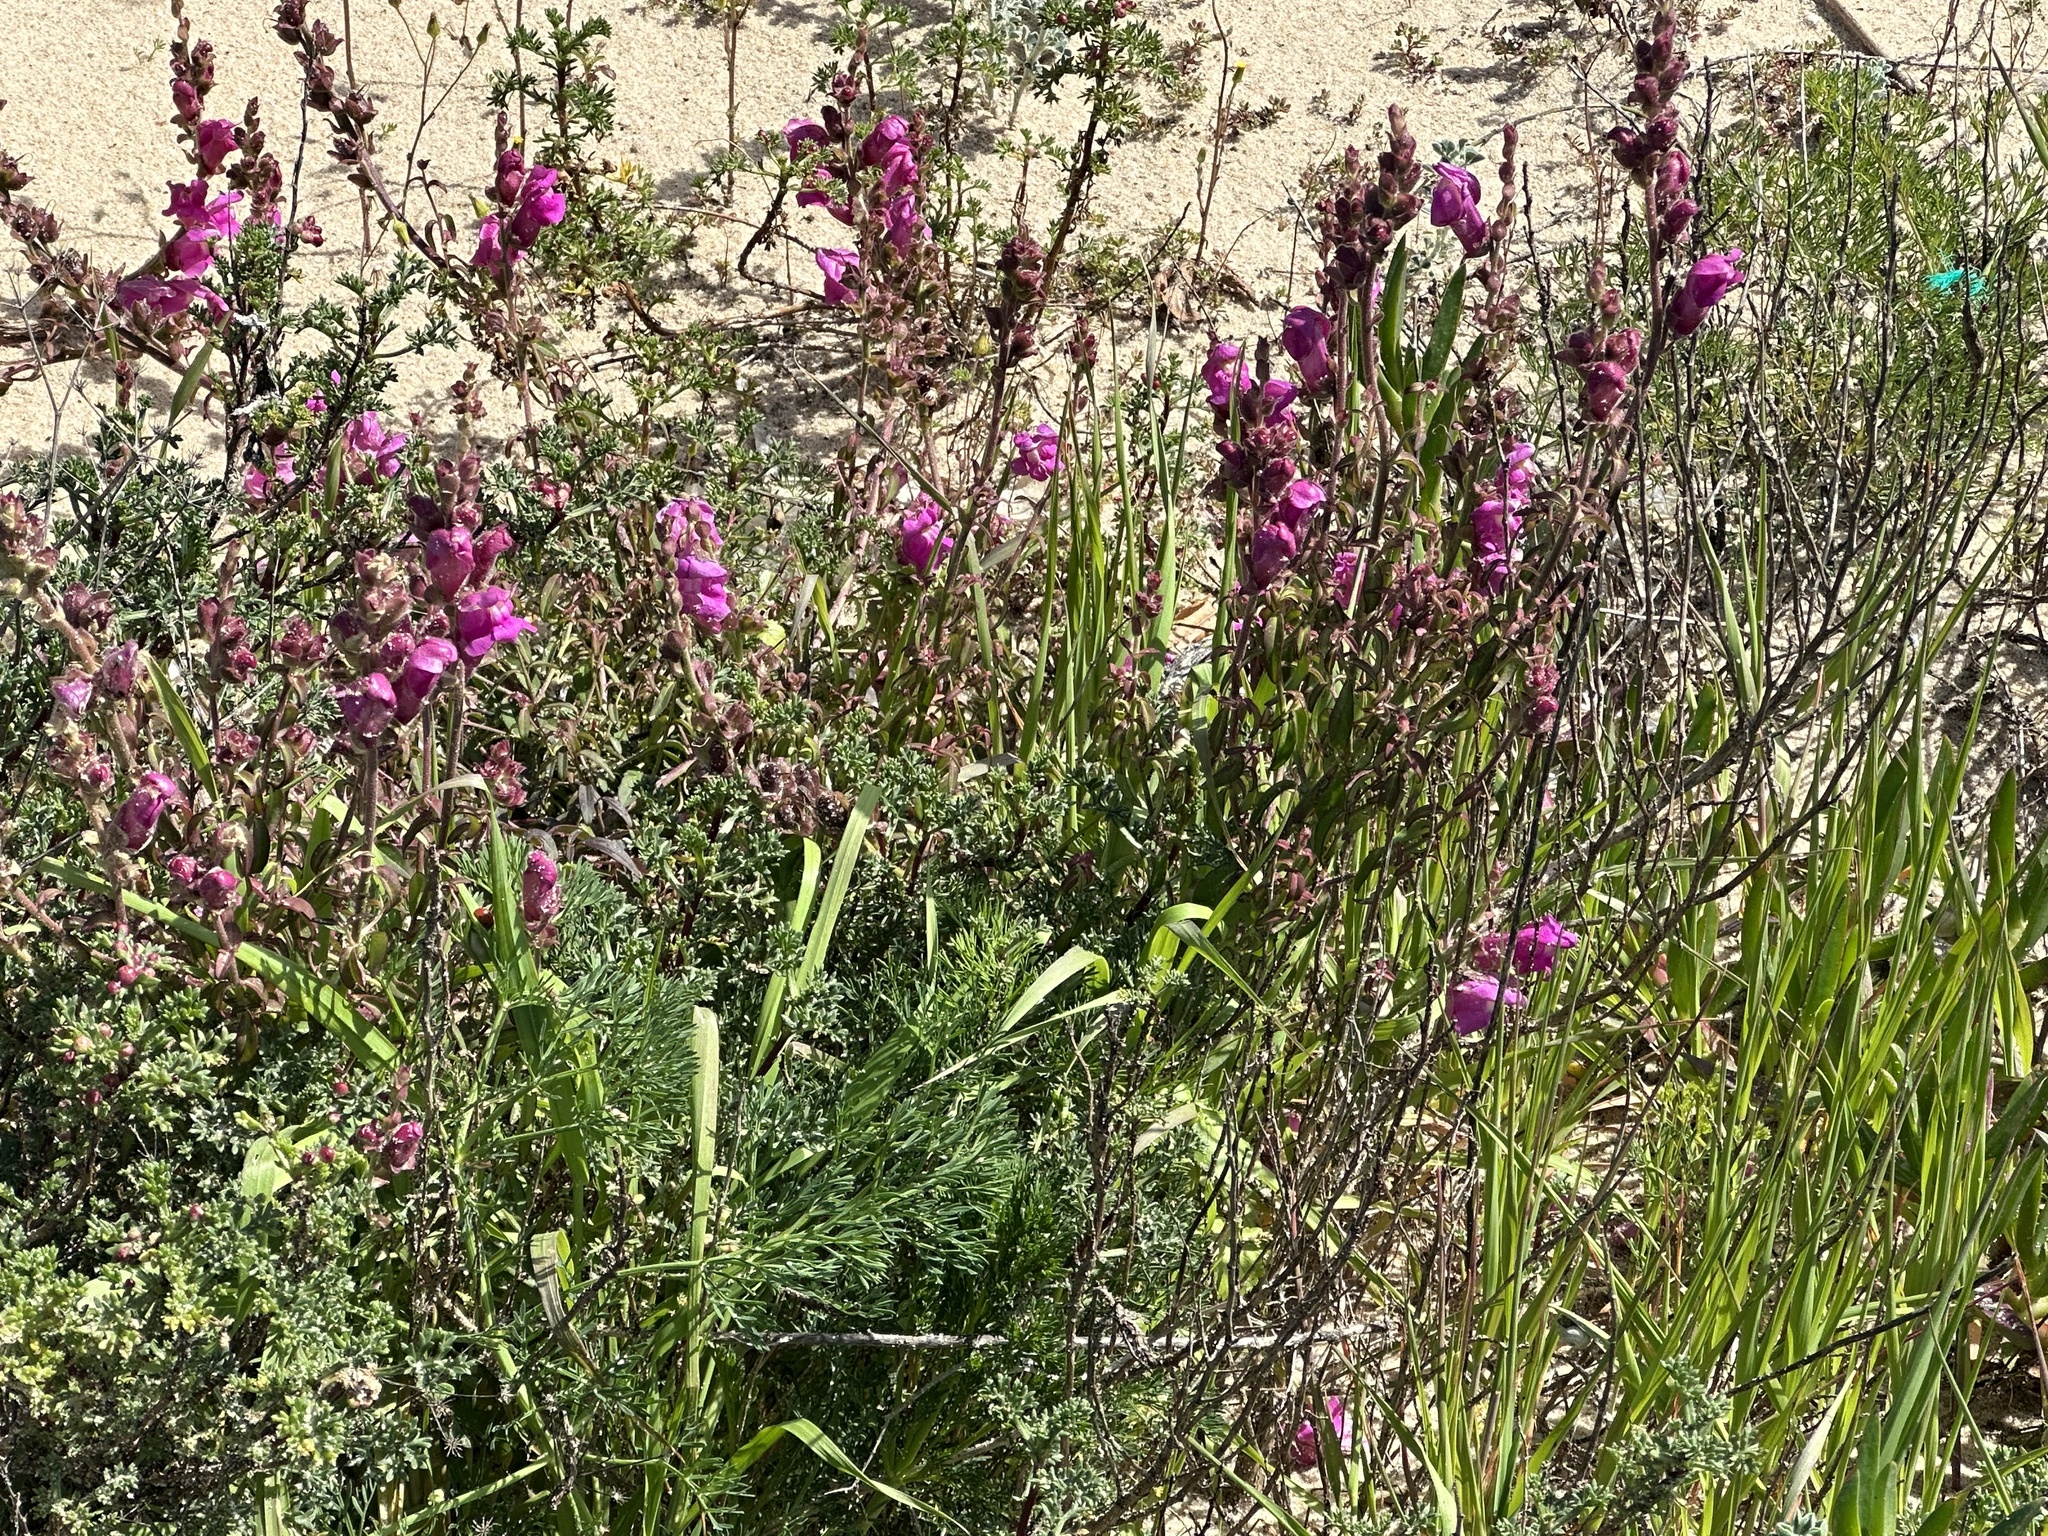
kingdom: Plantae
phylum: Tracheophyta
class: Magnoliopsida
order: Lamiales
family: Plantaginaceae
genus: Antirrhinum
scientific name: Antirrhinum cirrhigerum
